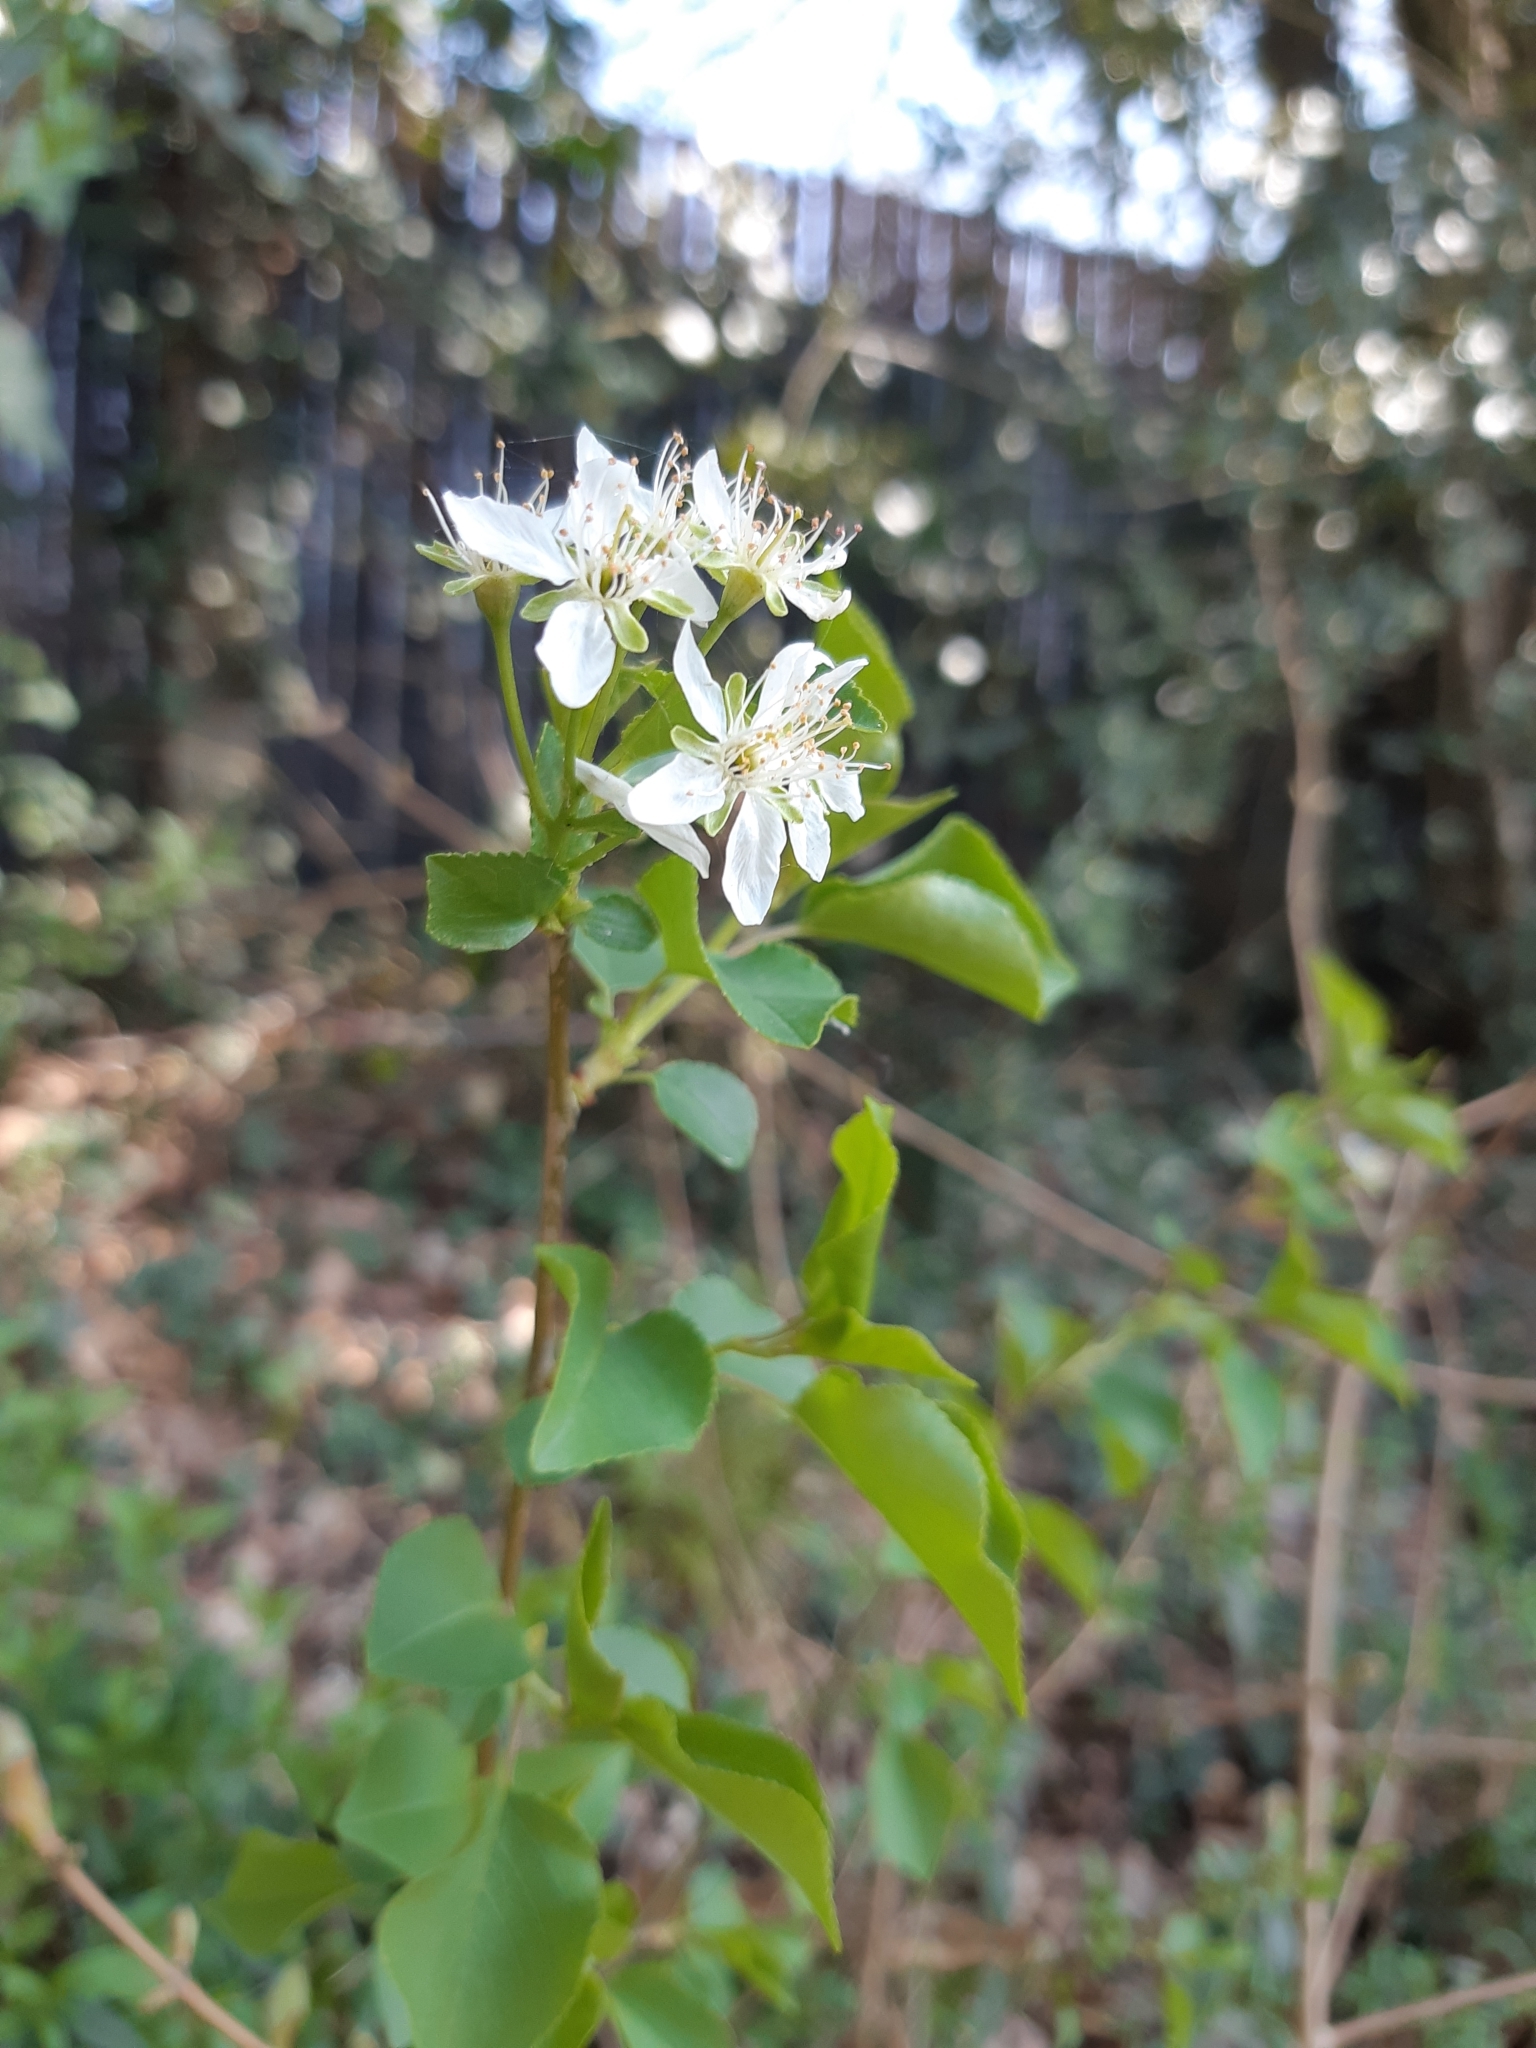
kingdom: Plantae
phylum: Tracheophyta
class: Magnoliopsida
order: Rosales
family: Rosaceae
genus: Prunus
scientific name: Prunus mahaleb
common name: Mahaleb cherry
